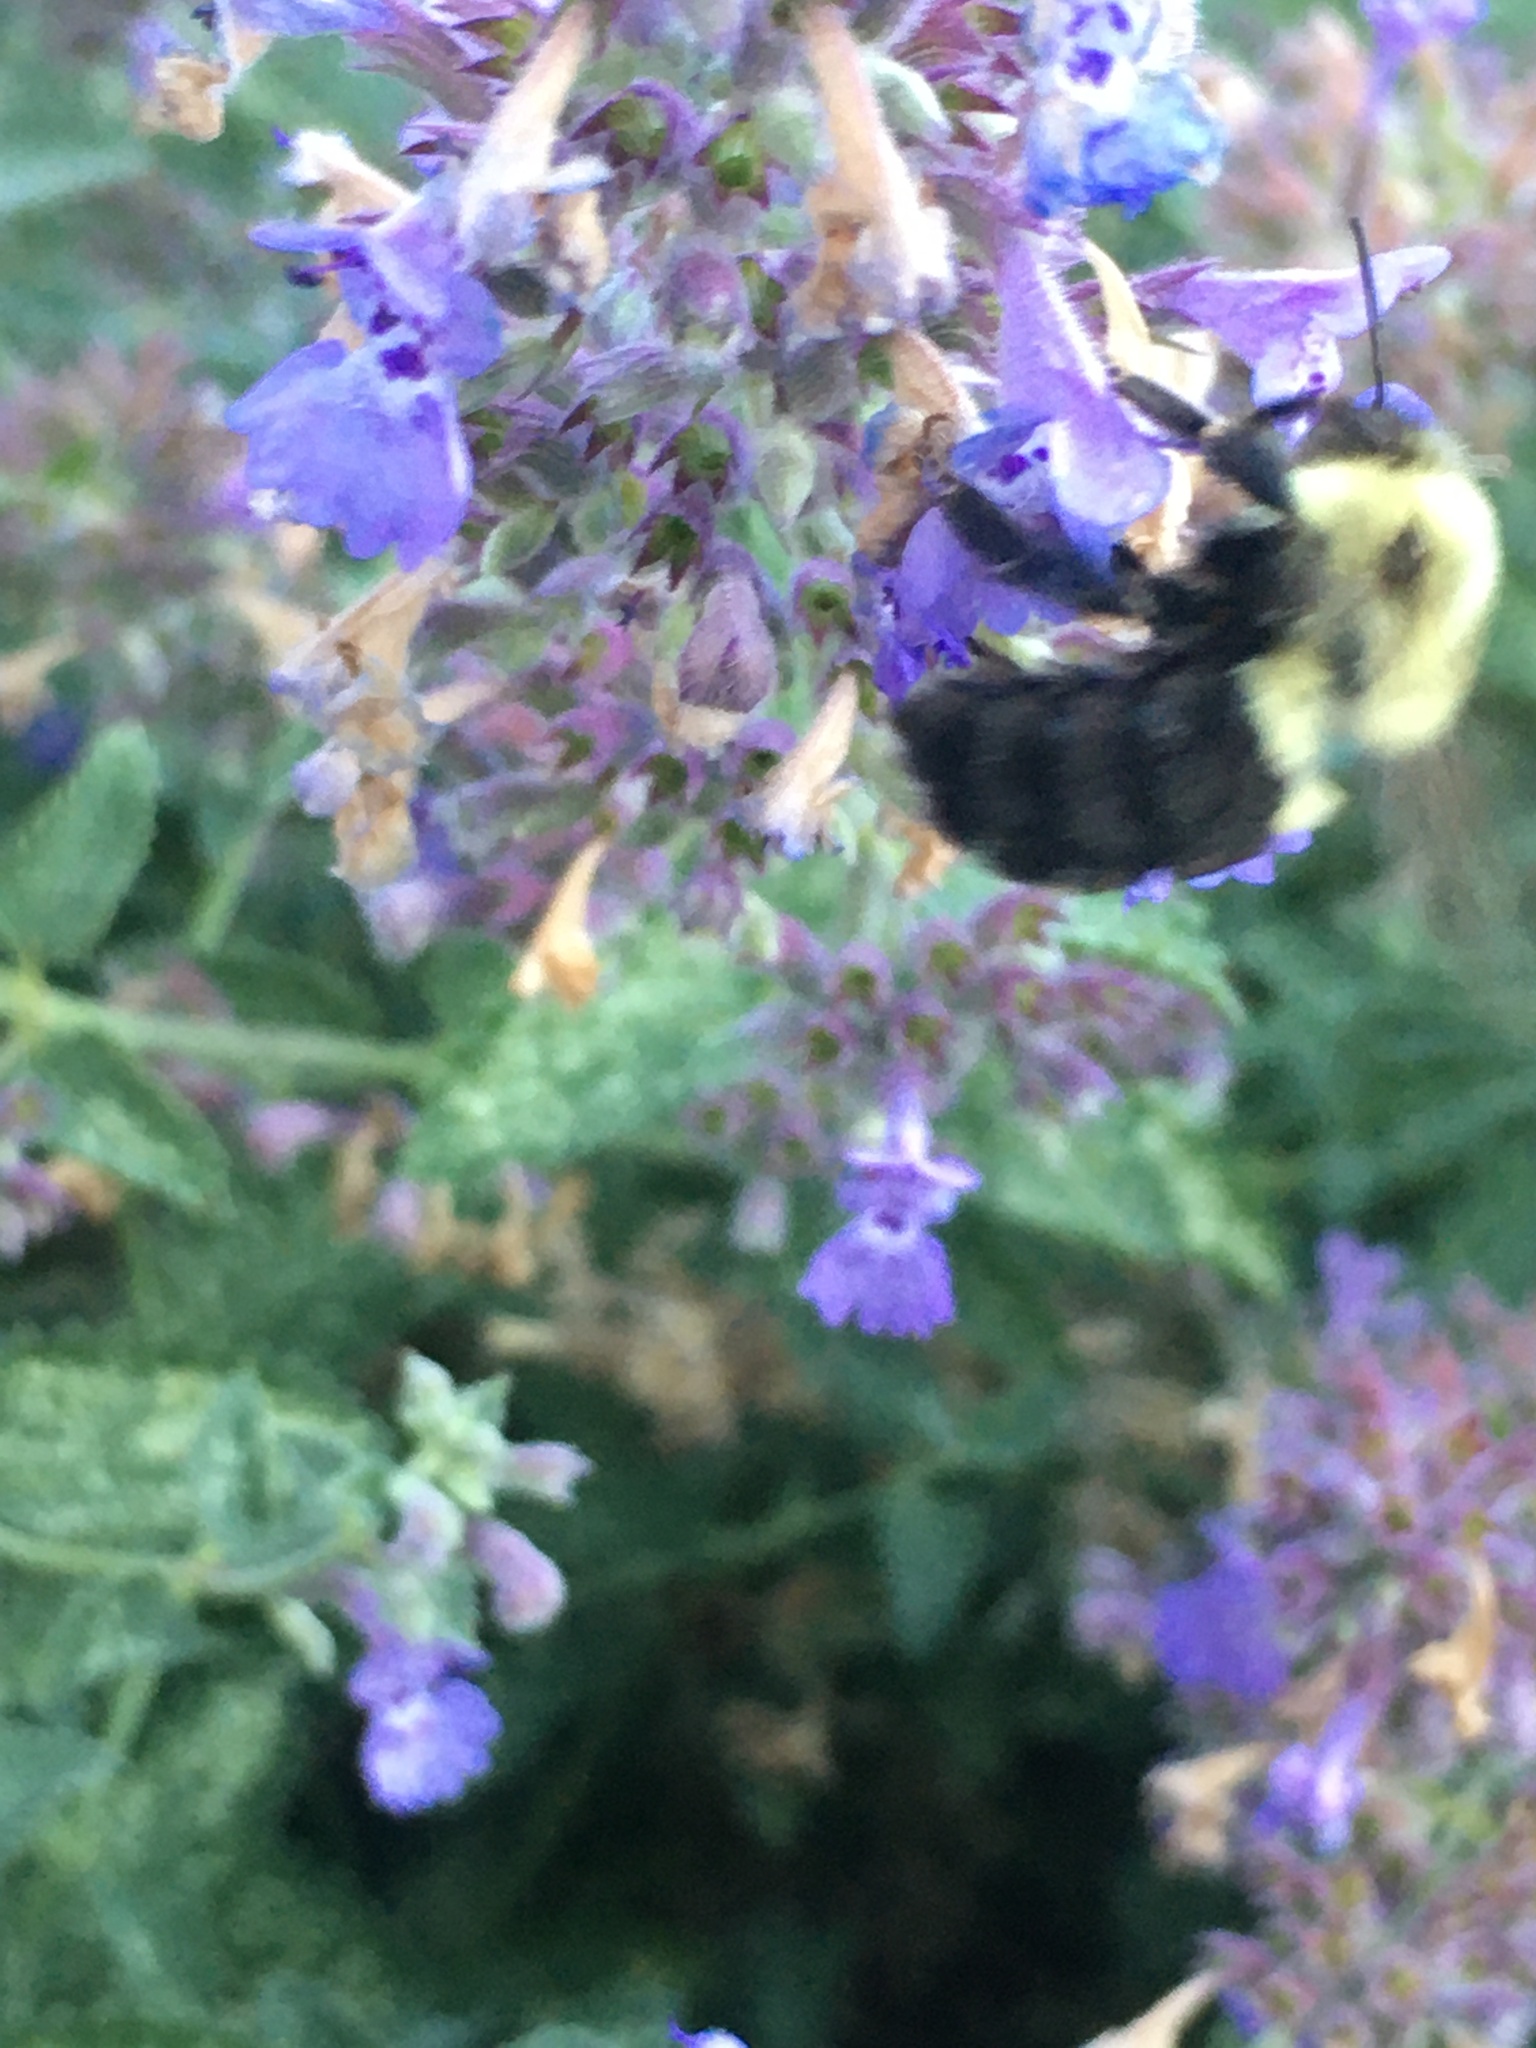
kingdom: Animalia
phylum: Arthropoda
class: Insecta
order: Hymenoptera
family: Apidae
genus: Bombus
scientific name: Bombus impatiens
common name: Common eastern bumble bee
